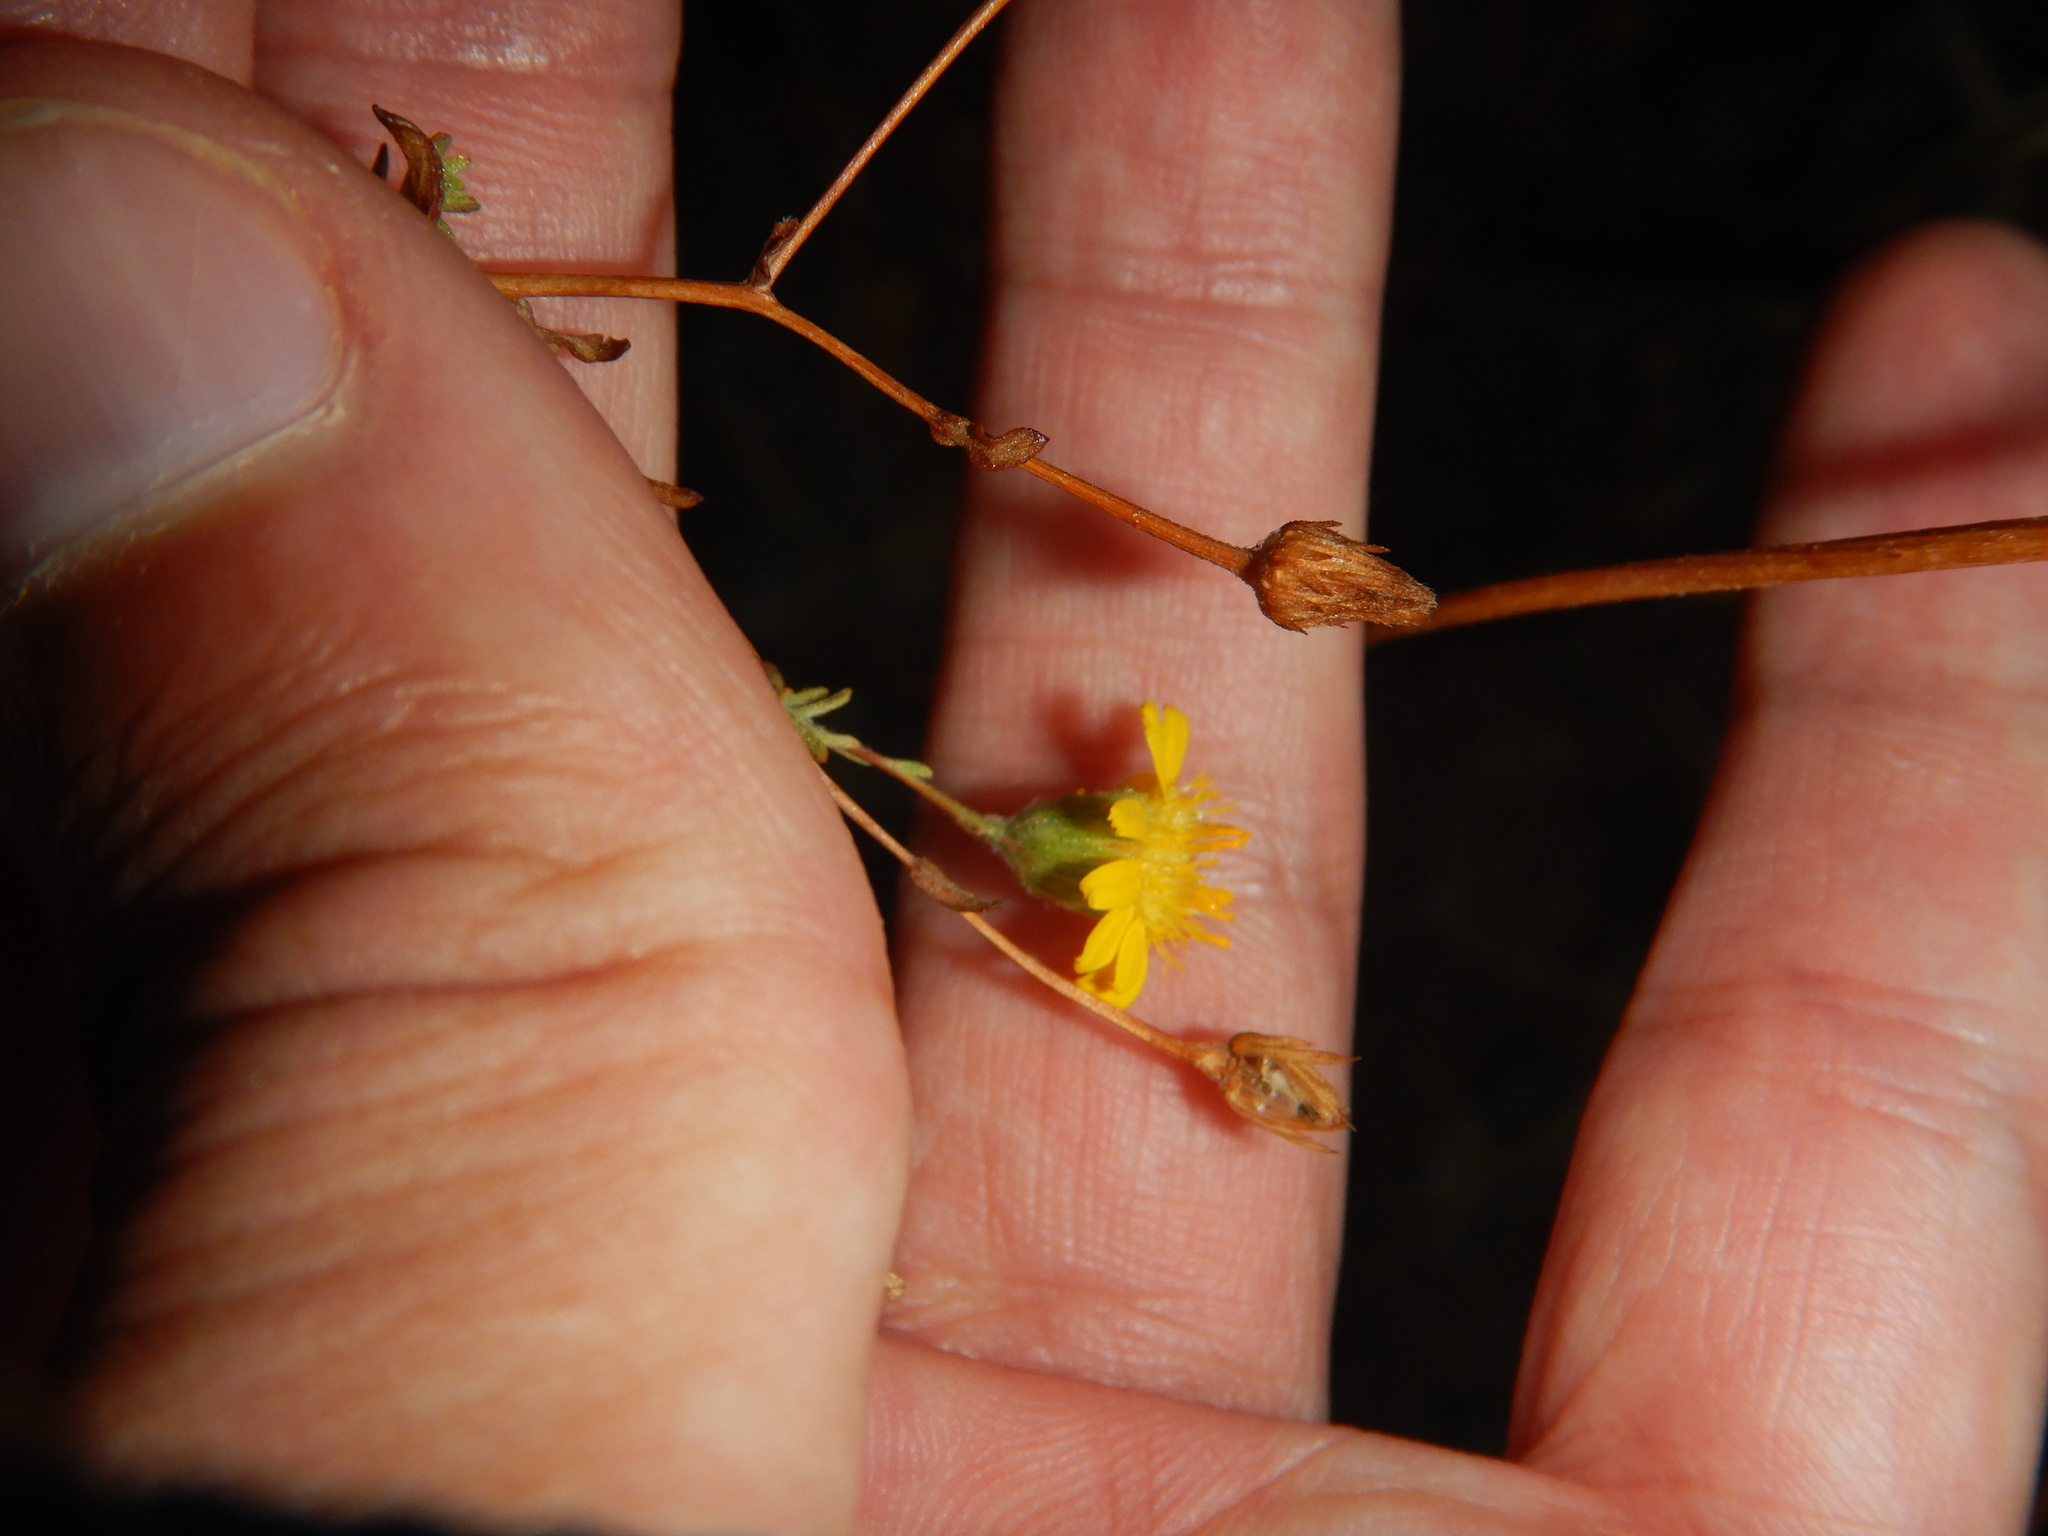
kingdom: Plantae
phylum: Tracheophyta
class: Magnoliopsida
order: Asterales
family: Asteraceae
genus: Pulicaria
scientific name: Pulicaria paludosa
